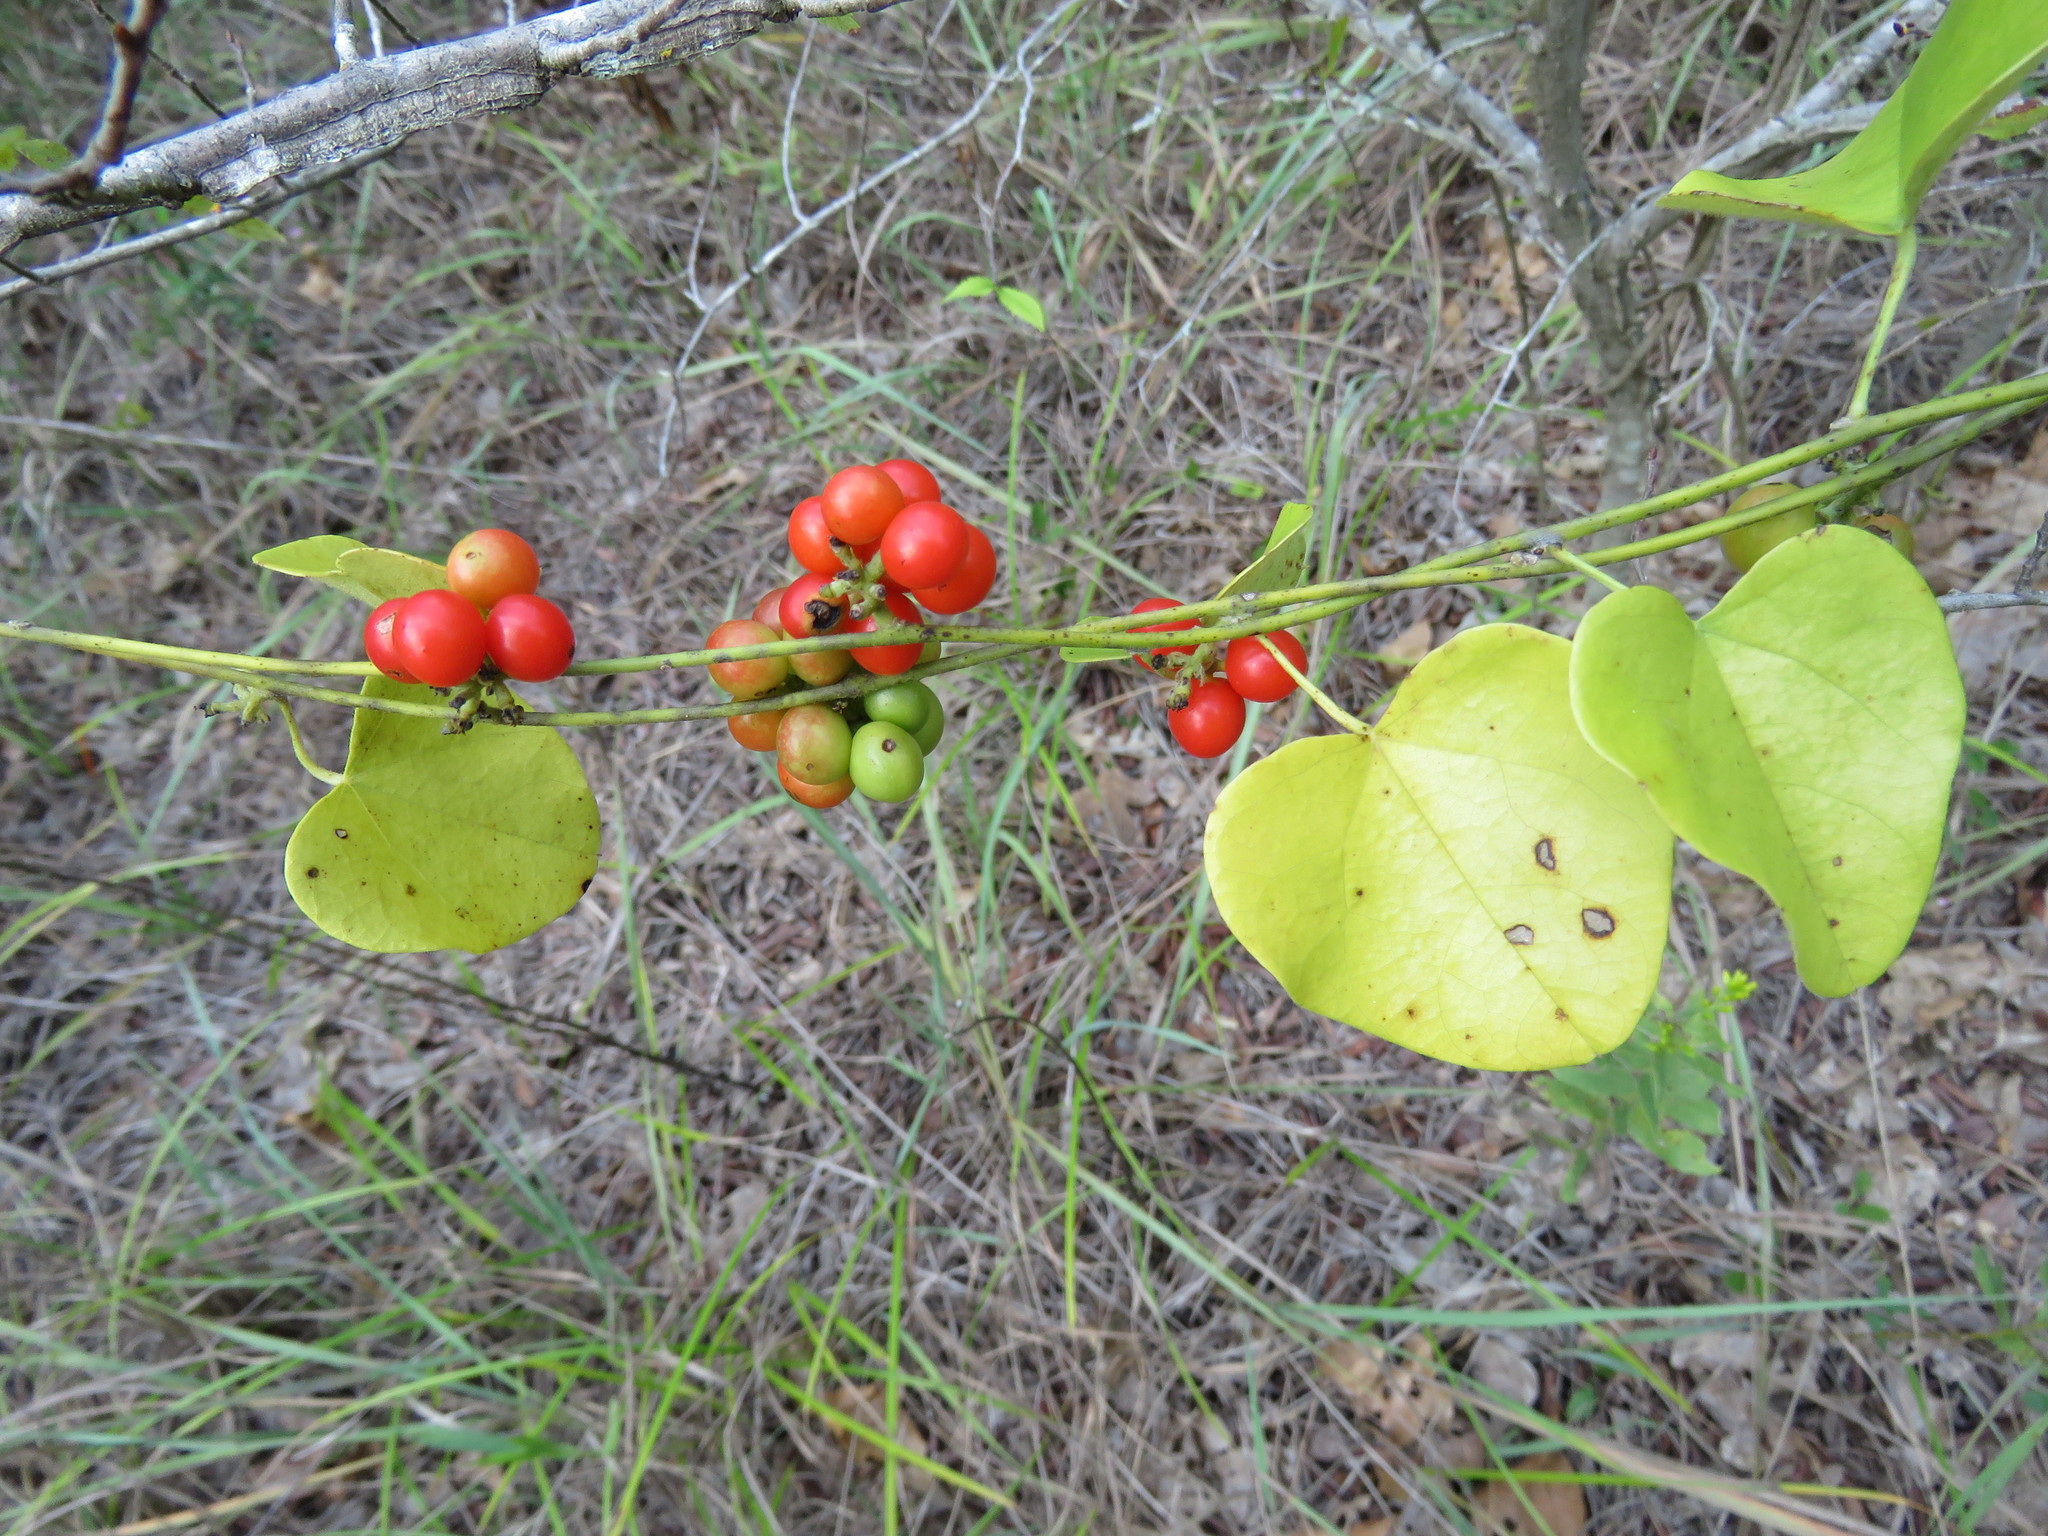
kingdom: Plantae
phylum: Tracheophyta
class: Magnoliopsida
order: Ranunculales
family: Menispermaceae
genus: Cocculus
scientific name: Cocculus carolinus
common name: Carolina moonseed
